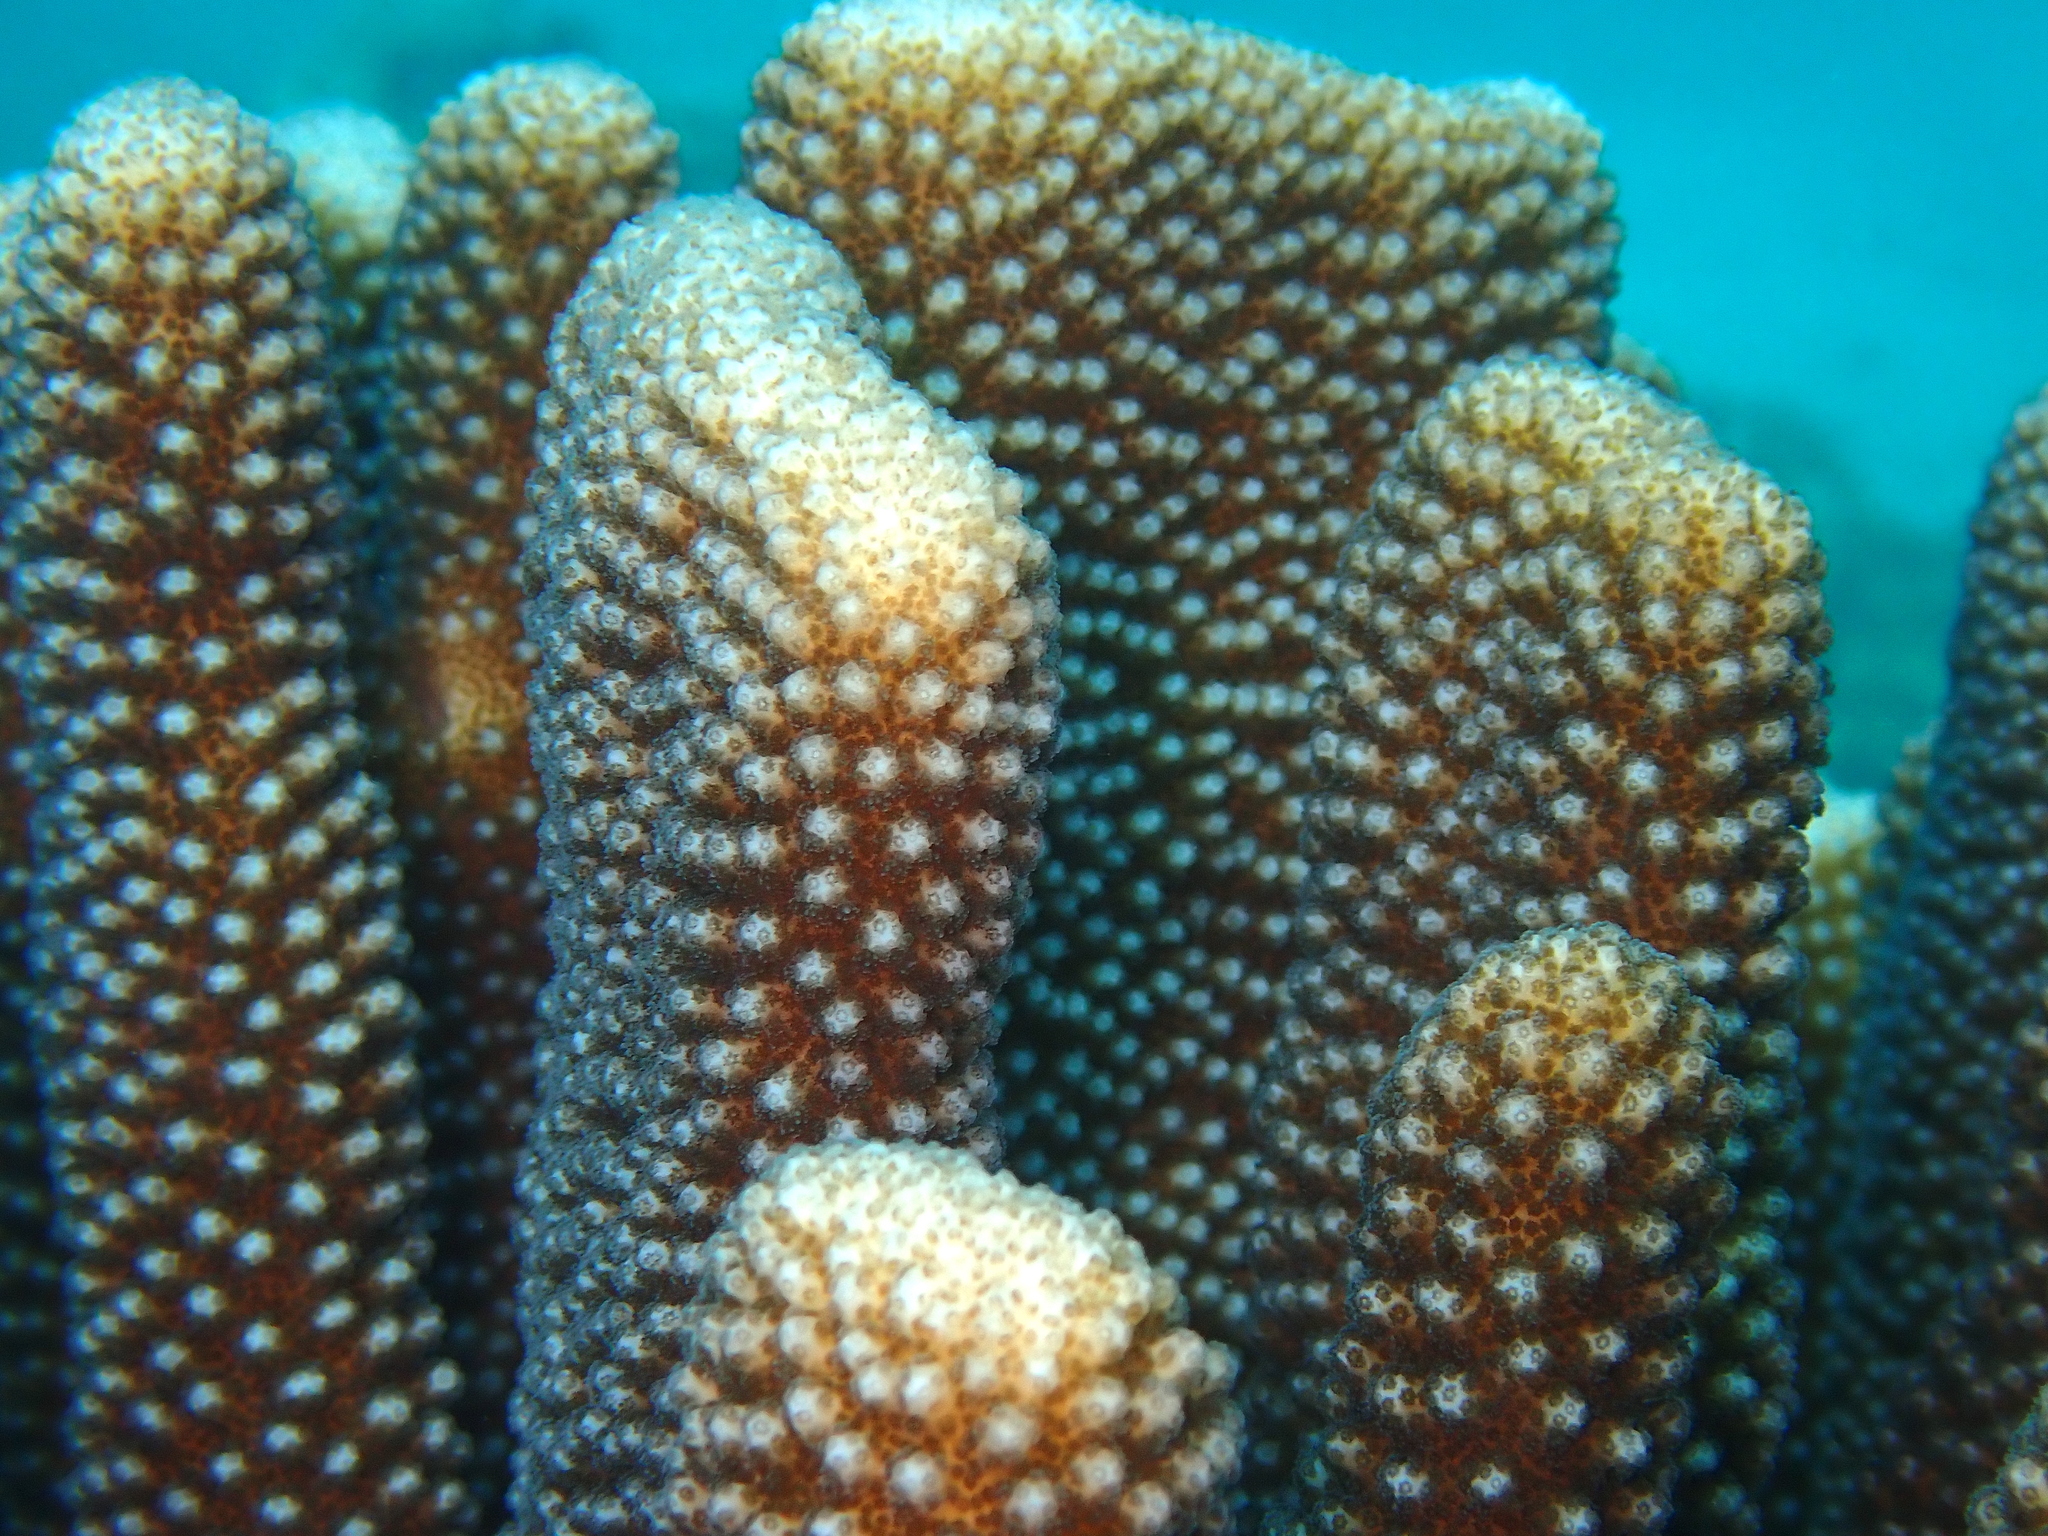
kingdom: Animalia
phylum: Cnidaria
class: Anthozoa
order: Scleractinia
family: Pocilloporidae
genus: Pocillopora
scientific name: Pocillopora grandis
